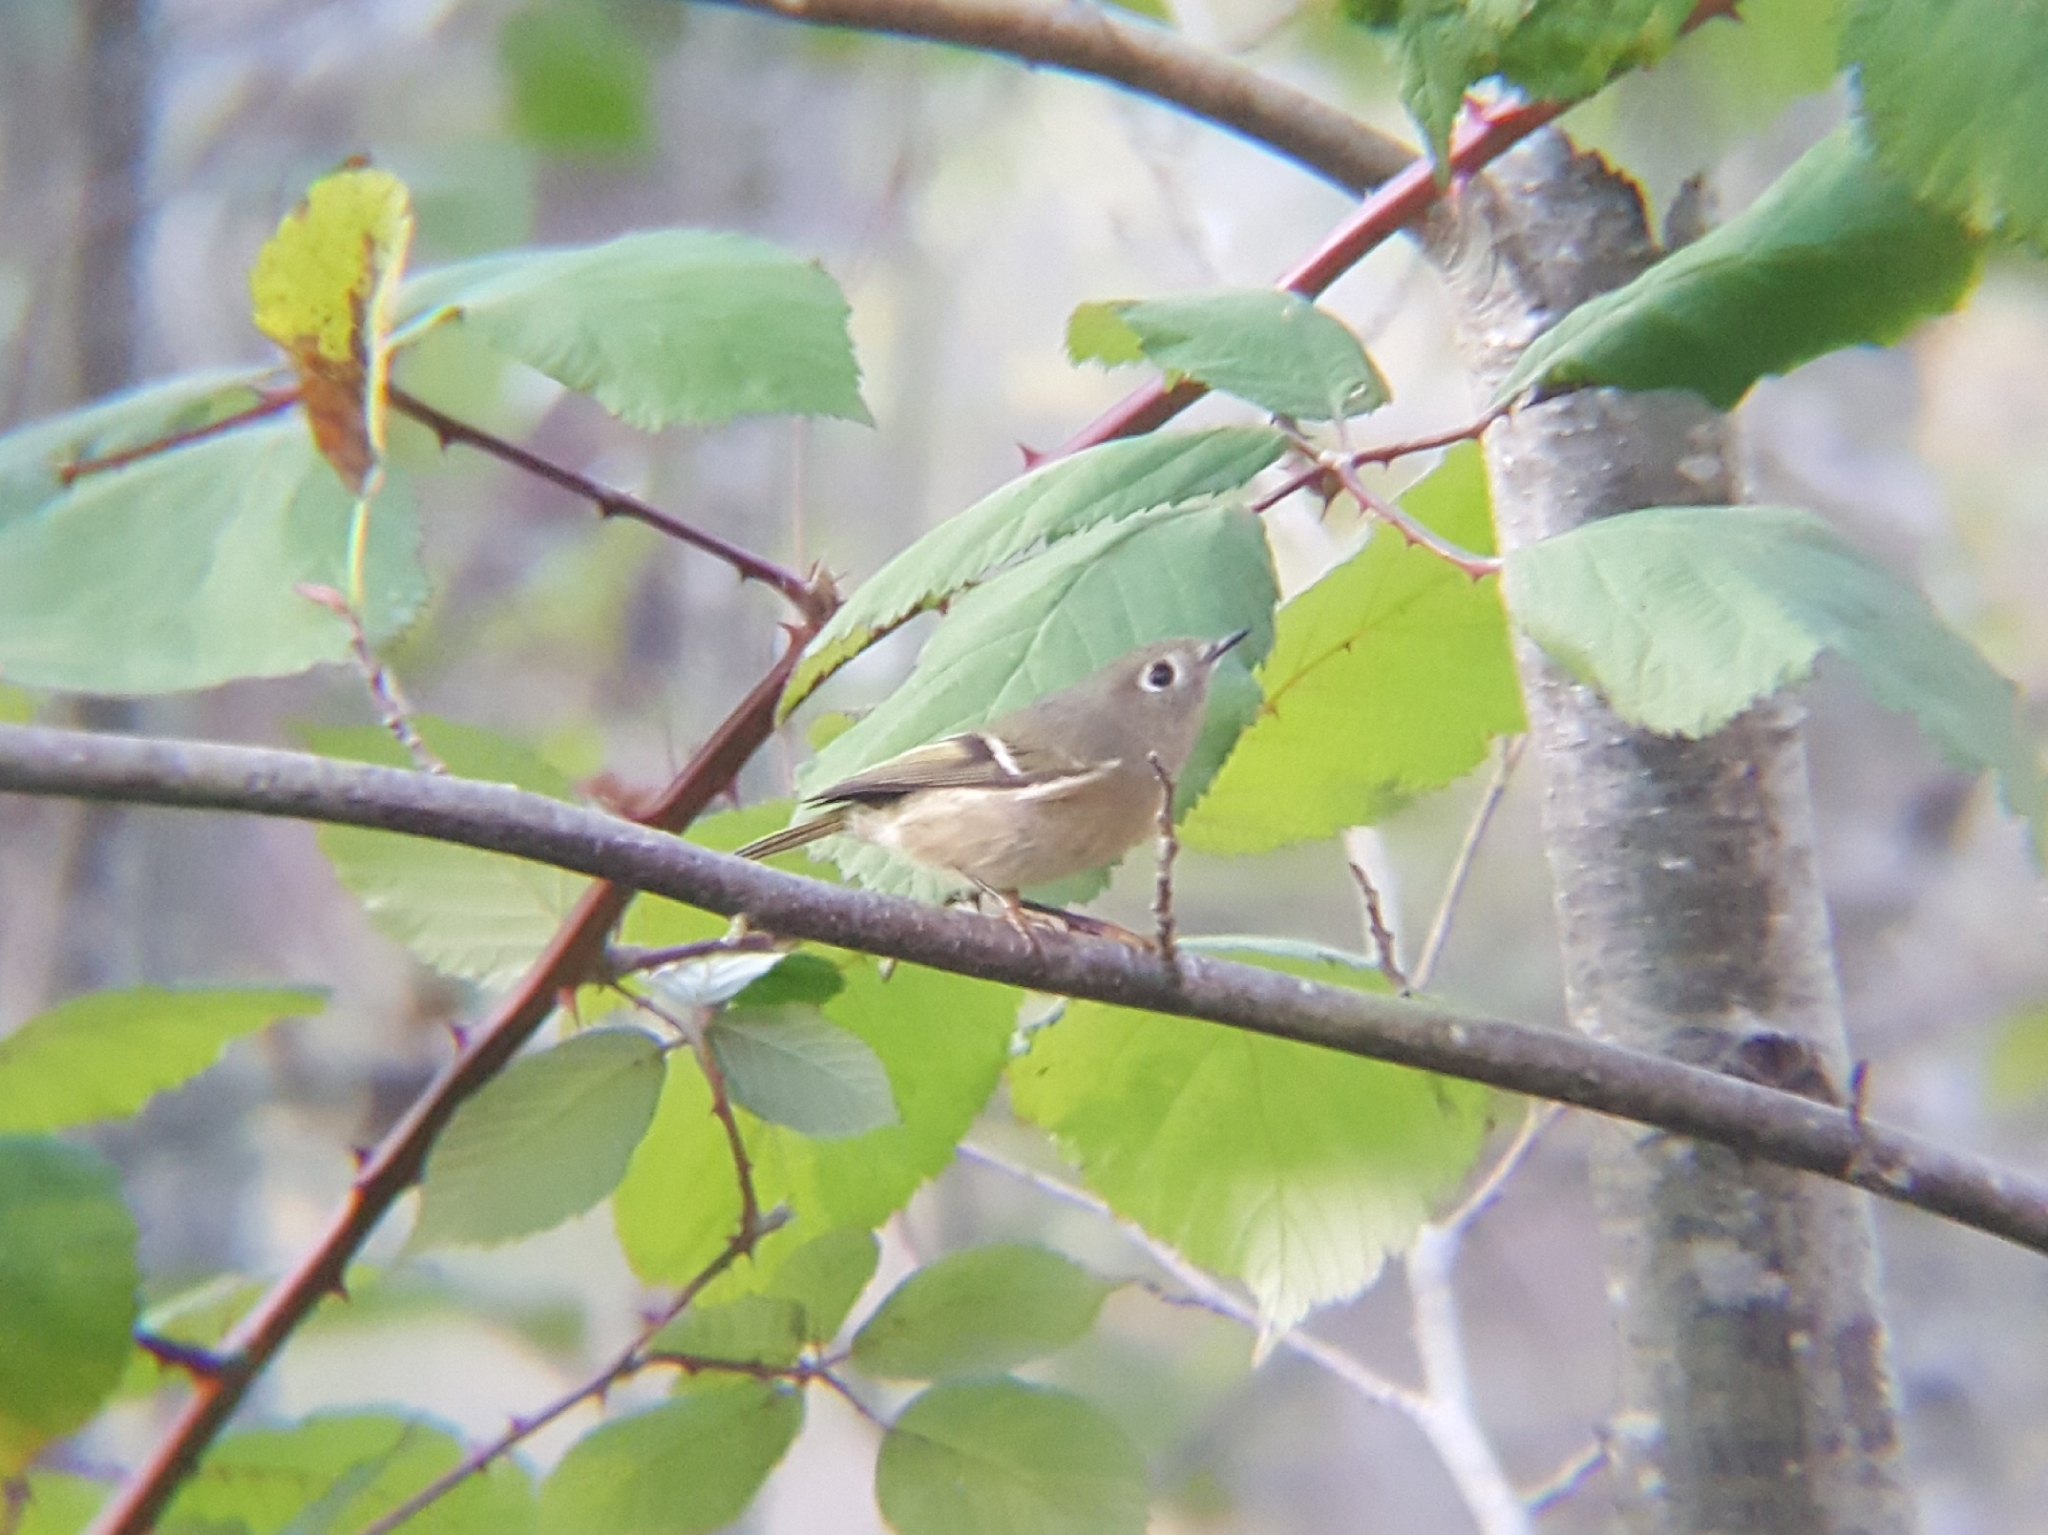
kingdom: Animalia
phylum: Chordata
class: Aves
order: Passeriformes
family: Regulidae
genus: Regulus
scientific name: Regulus calendula
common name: Ruby-crowned kinglet
